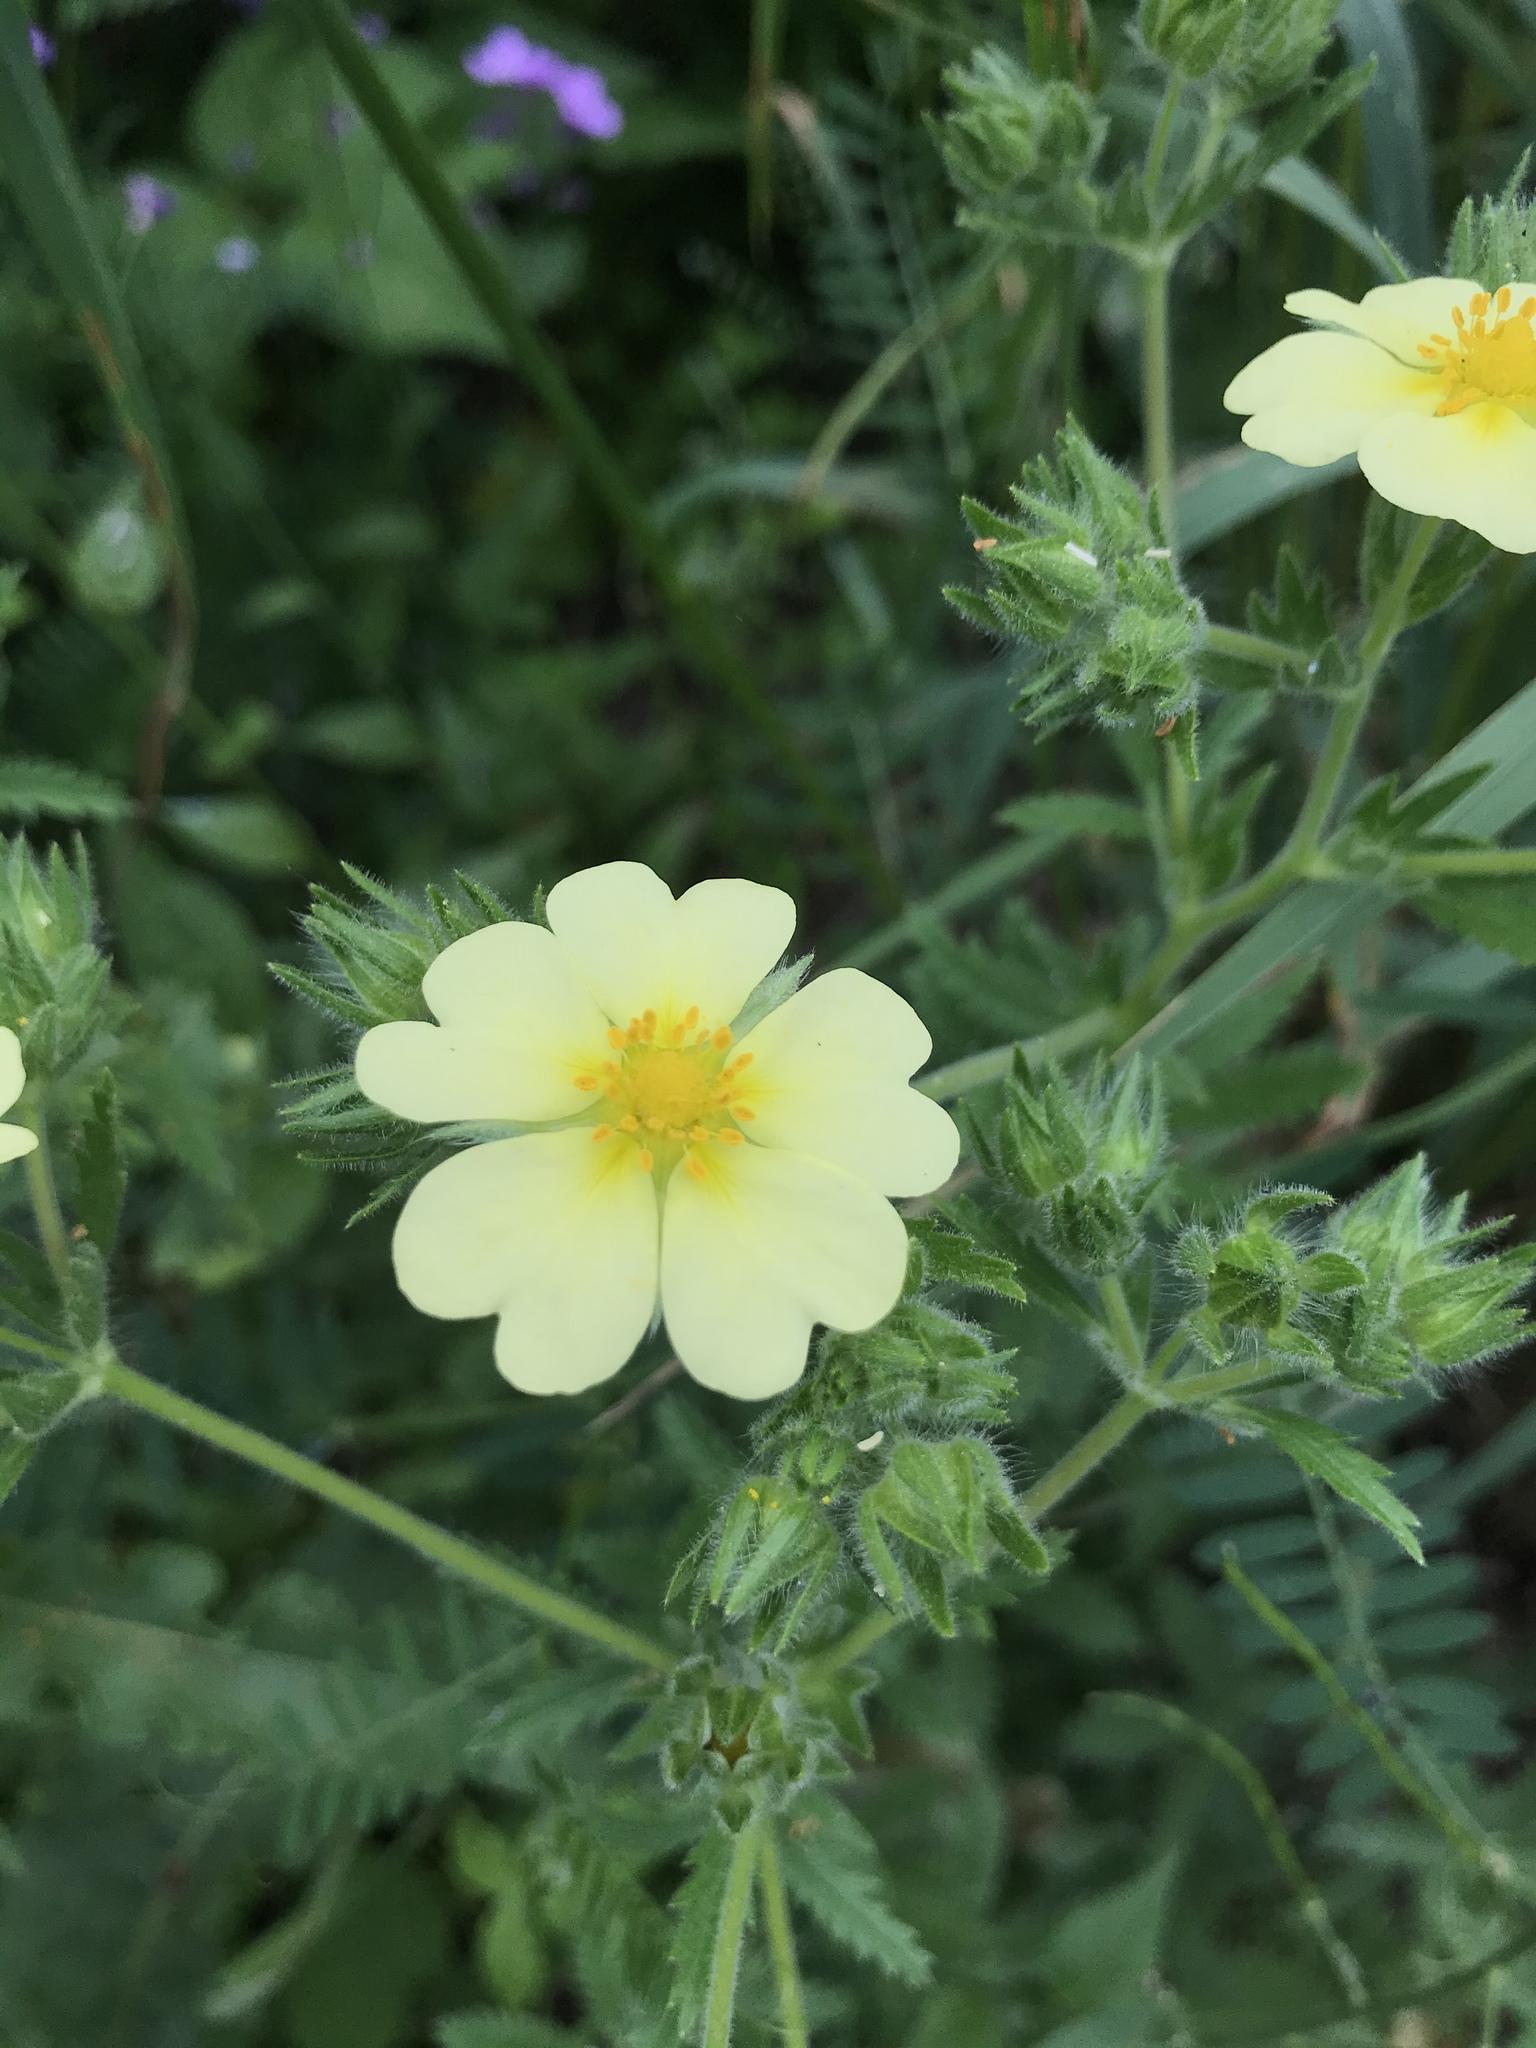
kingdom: Plantae
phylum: Tracheophyta
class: Magnoliopsida
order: Rosales
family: Rosaceae
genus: Potentilla
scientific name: Potentilla recta
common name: Sulphur cinquefoil
